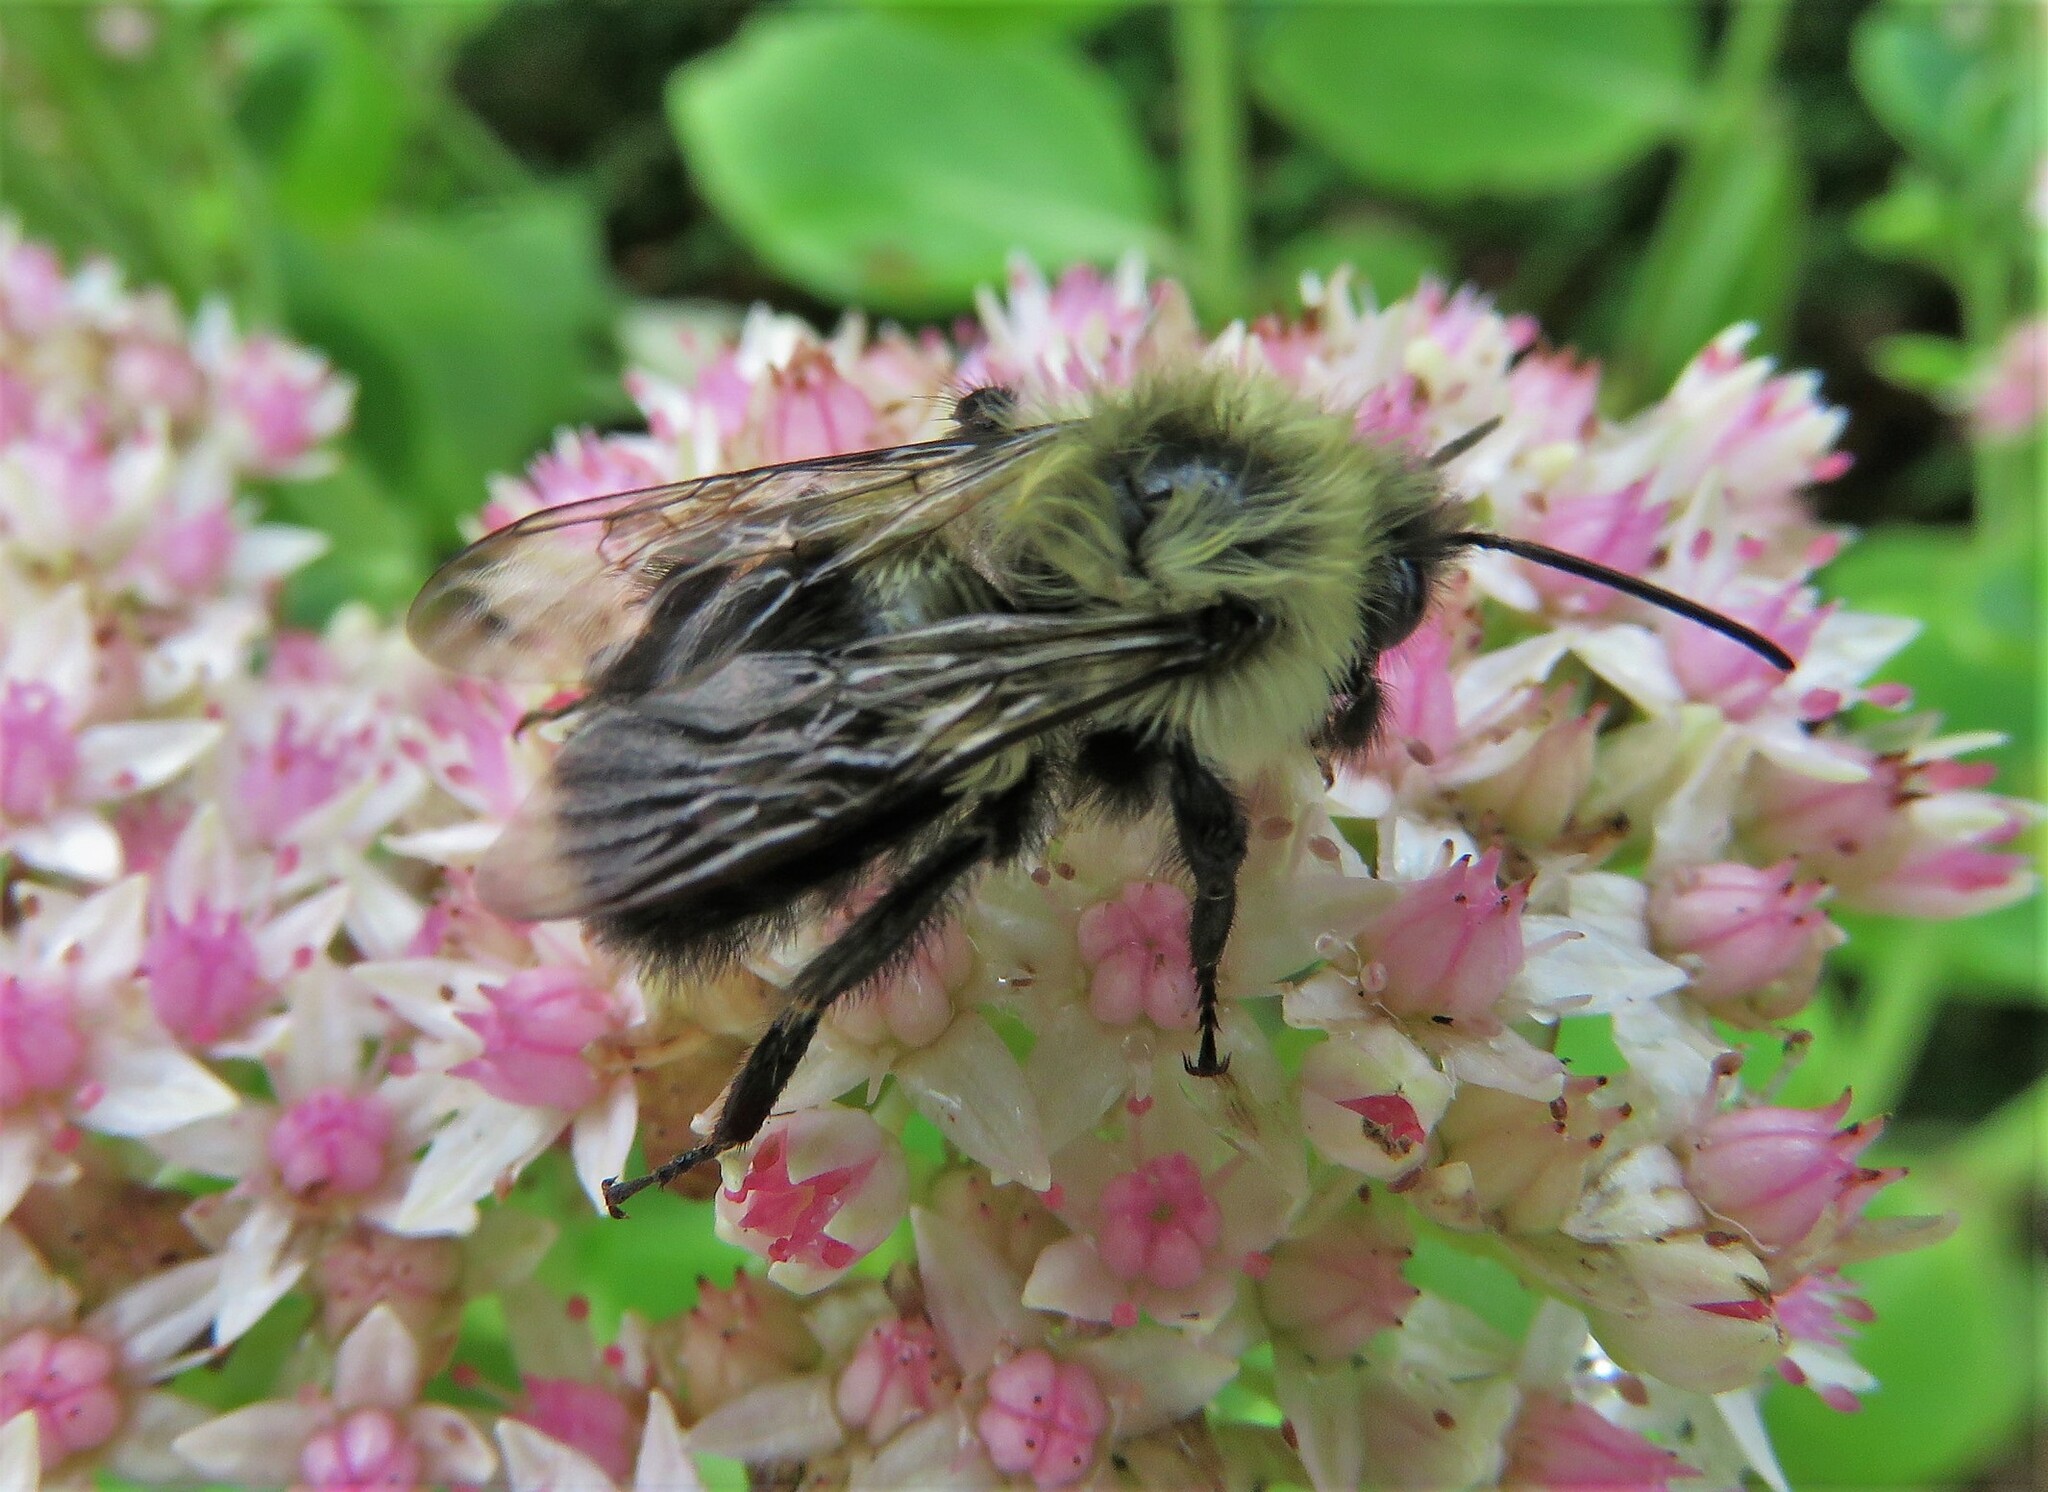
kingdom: Animalia
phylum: Arthropoda
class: Insecta
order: Hymenoptera
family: Apidae
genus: Bombus
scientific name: Bombus impatiens
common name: Common eastern bumble bee
